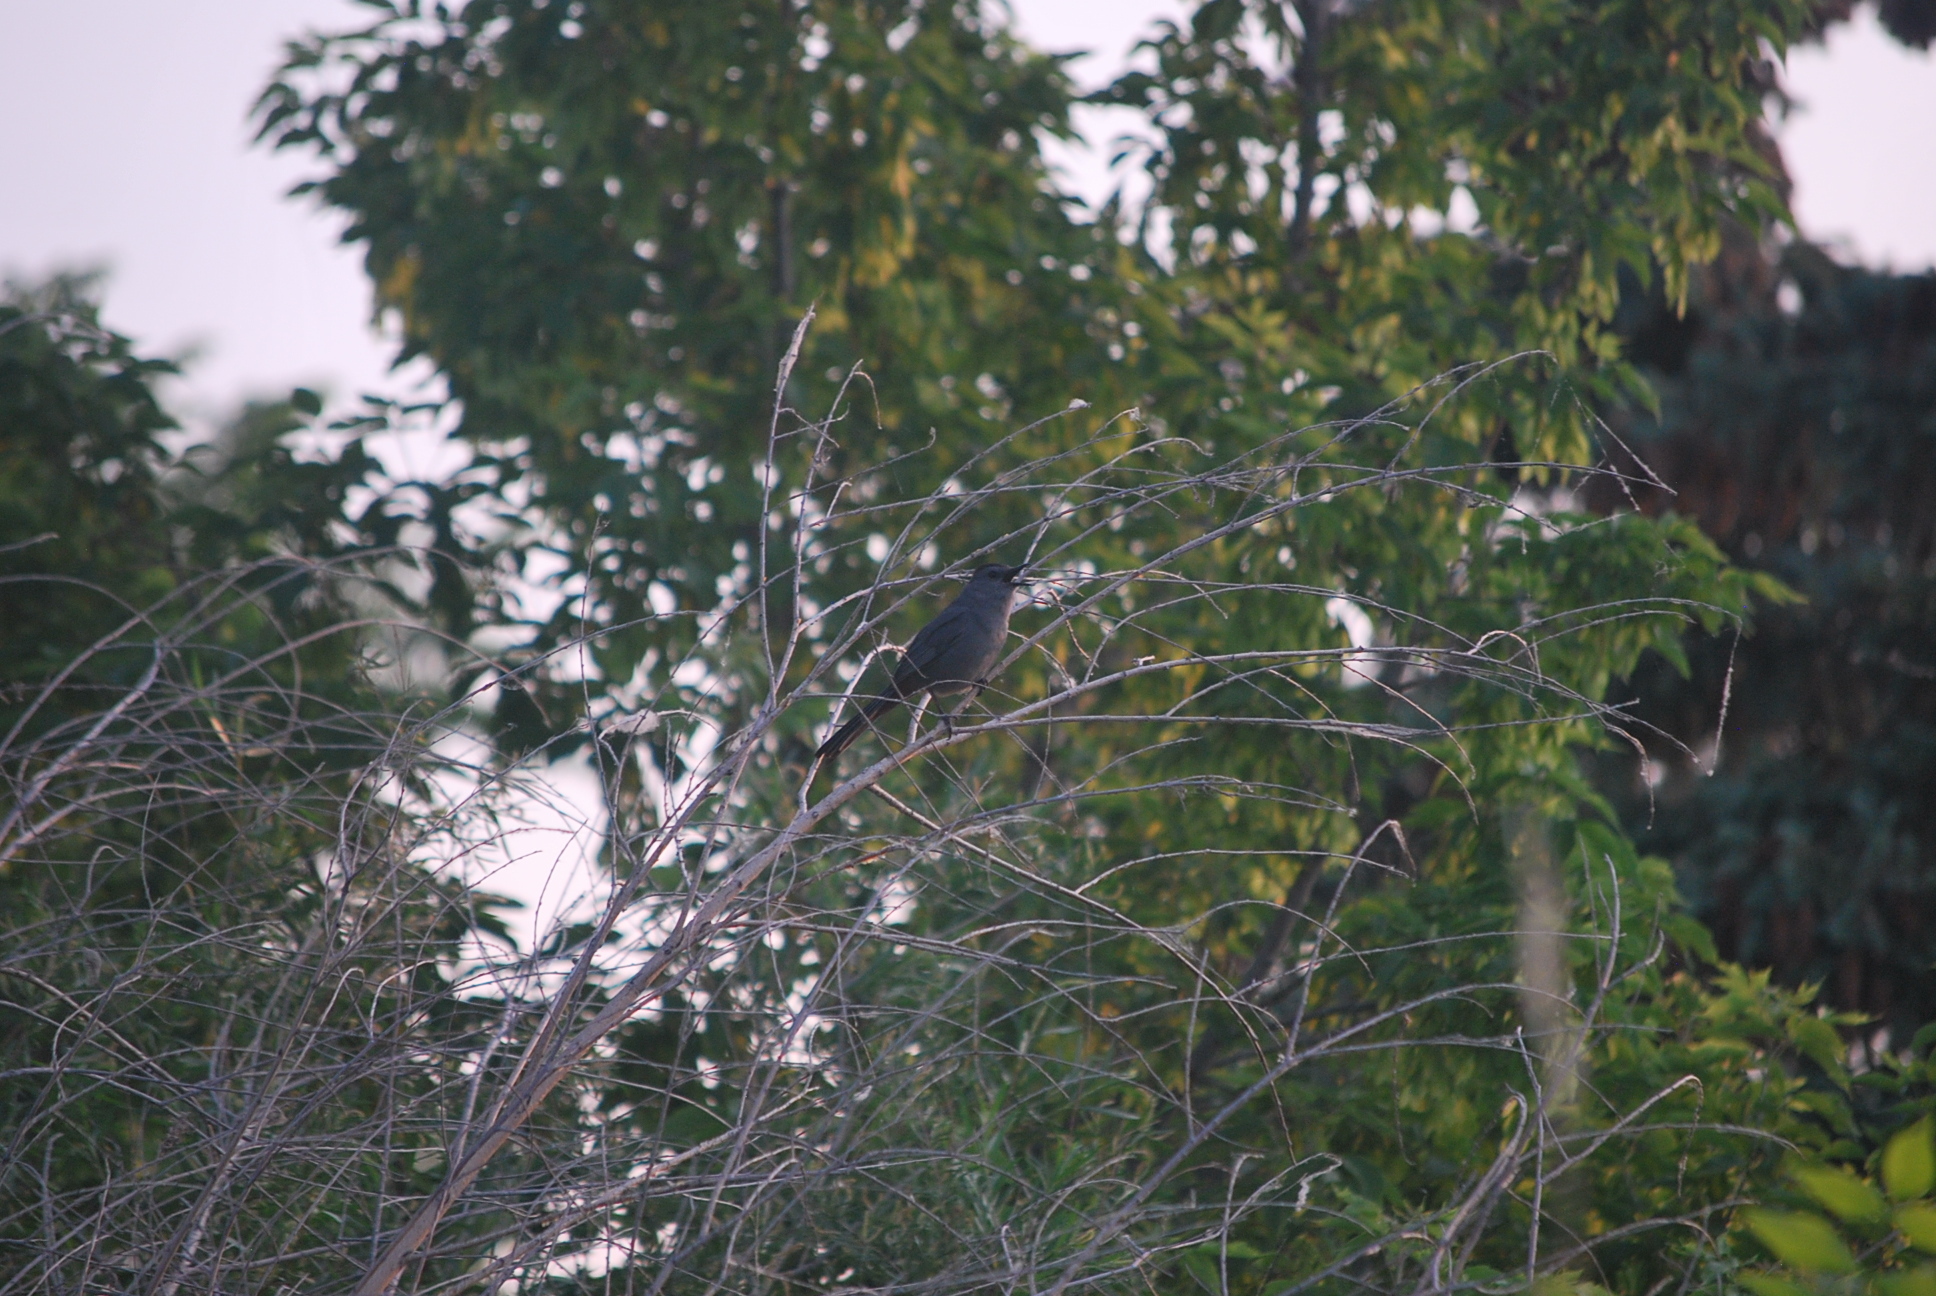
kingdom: Animalia
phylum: Chordata
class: Aves
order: Passeriformes
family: Mimidae
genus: Dumetella
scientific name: Dumetella carolinensis
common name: Gray catbird
